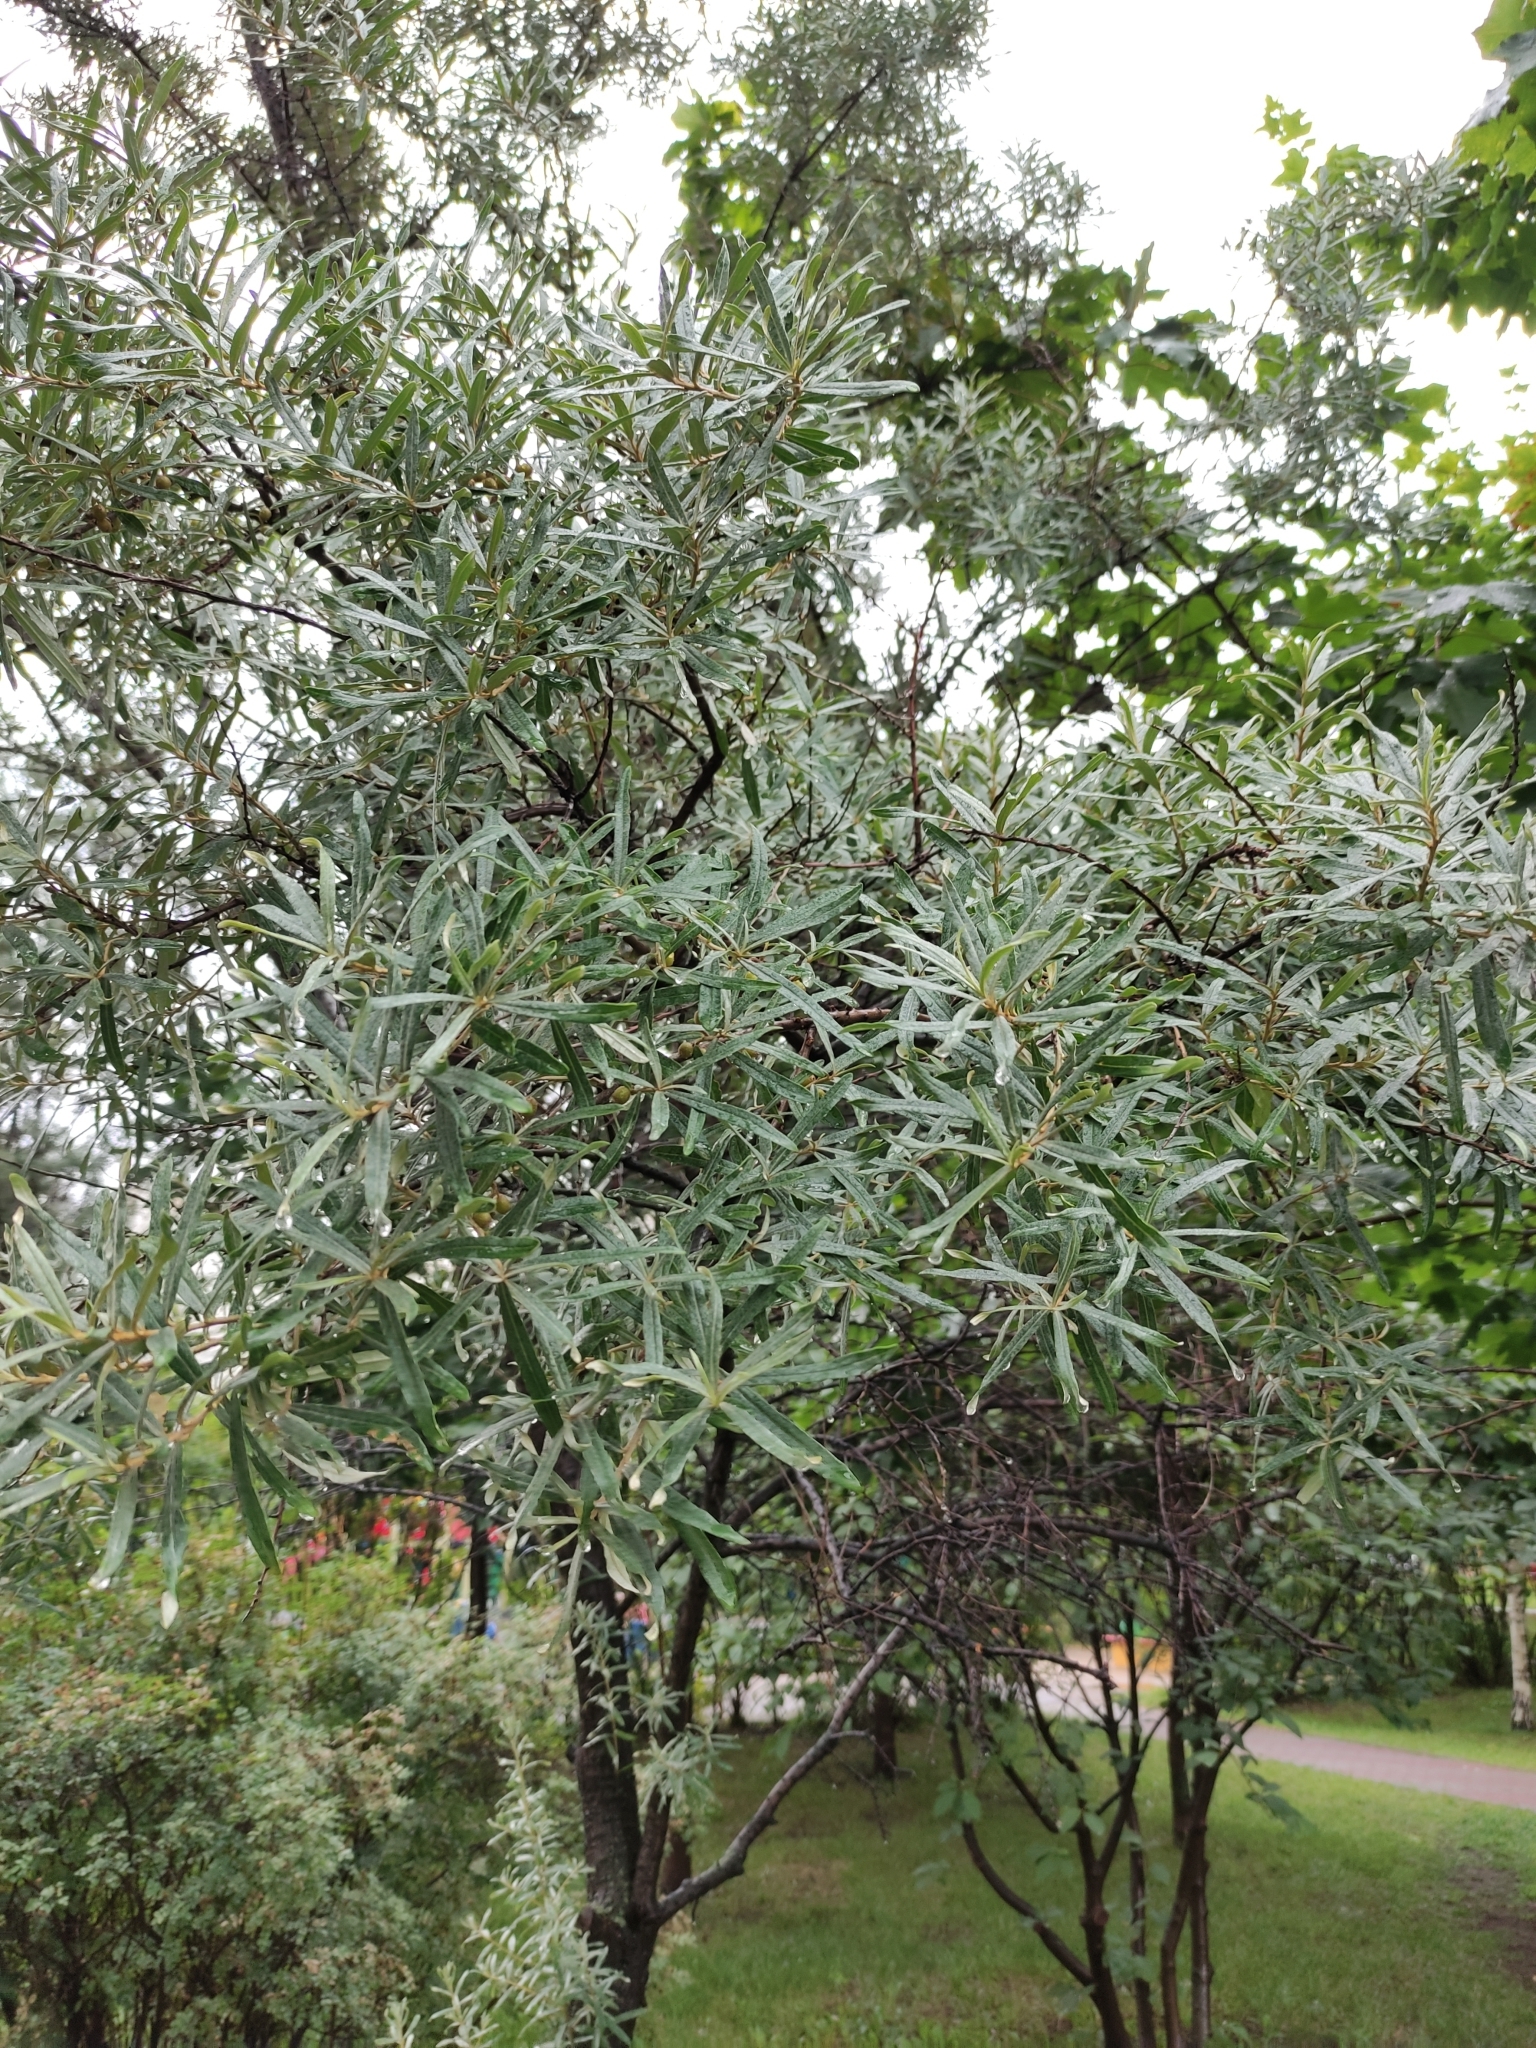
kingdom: Plantae
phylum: Tracheophyta
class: Magnoliopsida
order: Rosales
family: Elaeagnaceae
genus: Hippophae
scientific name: Hippophae rhamnoides
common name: Sea-buckthorn
